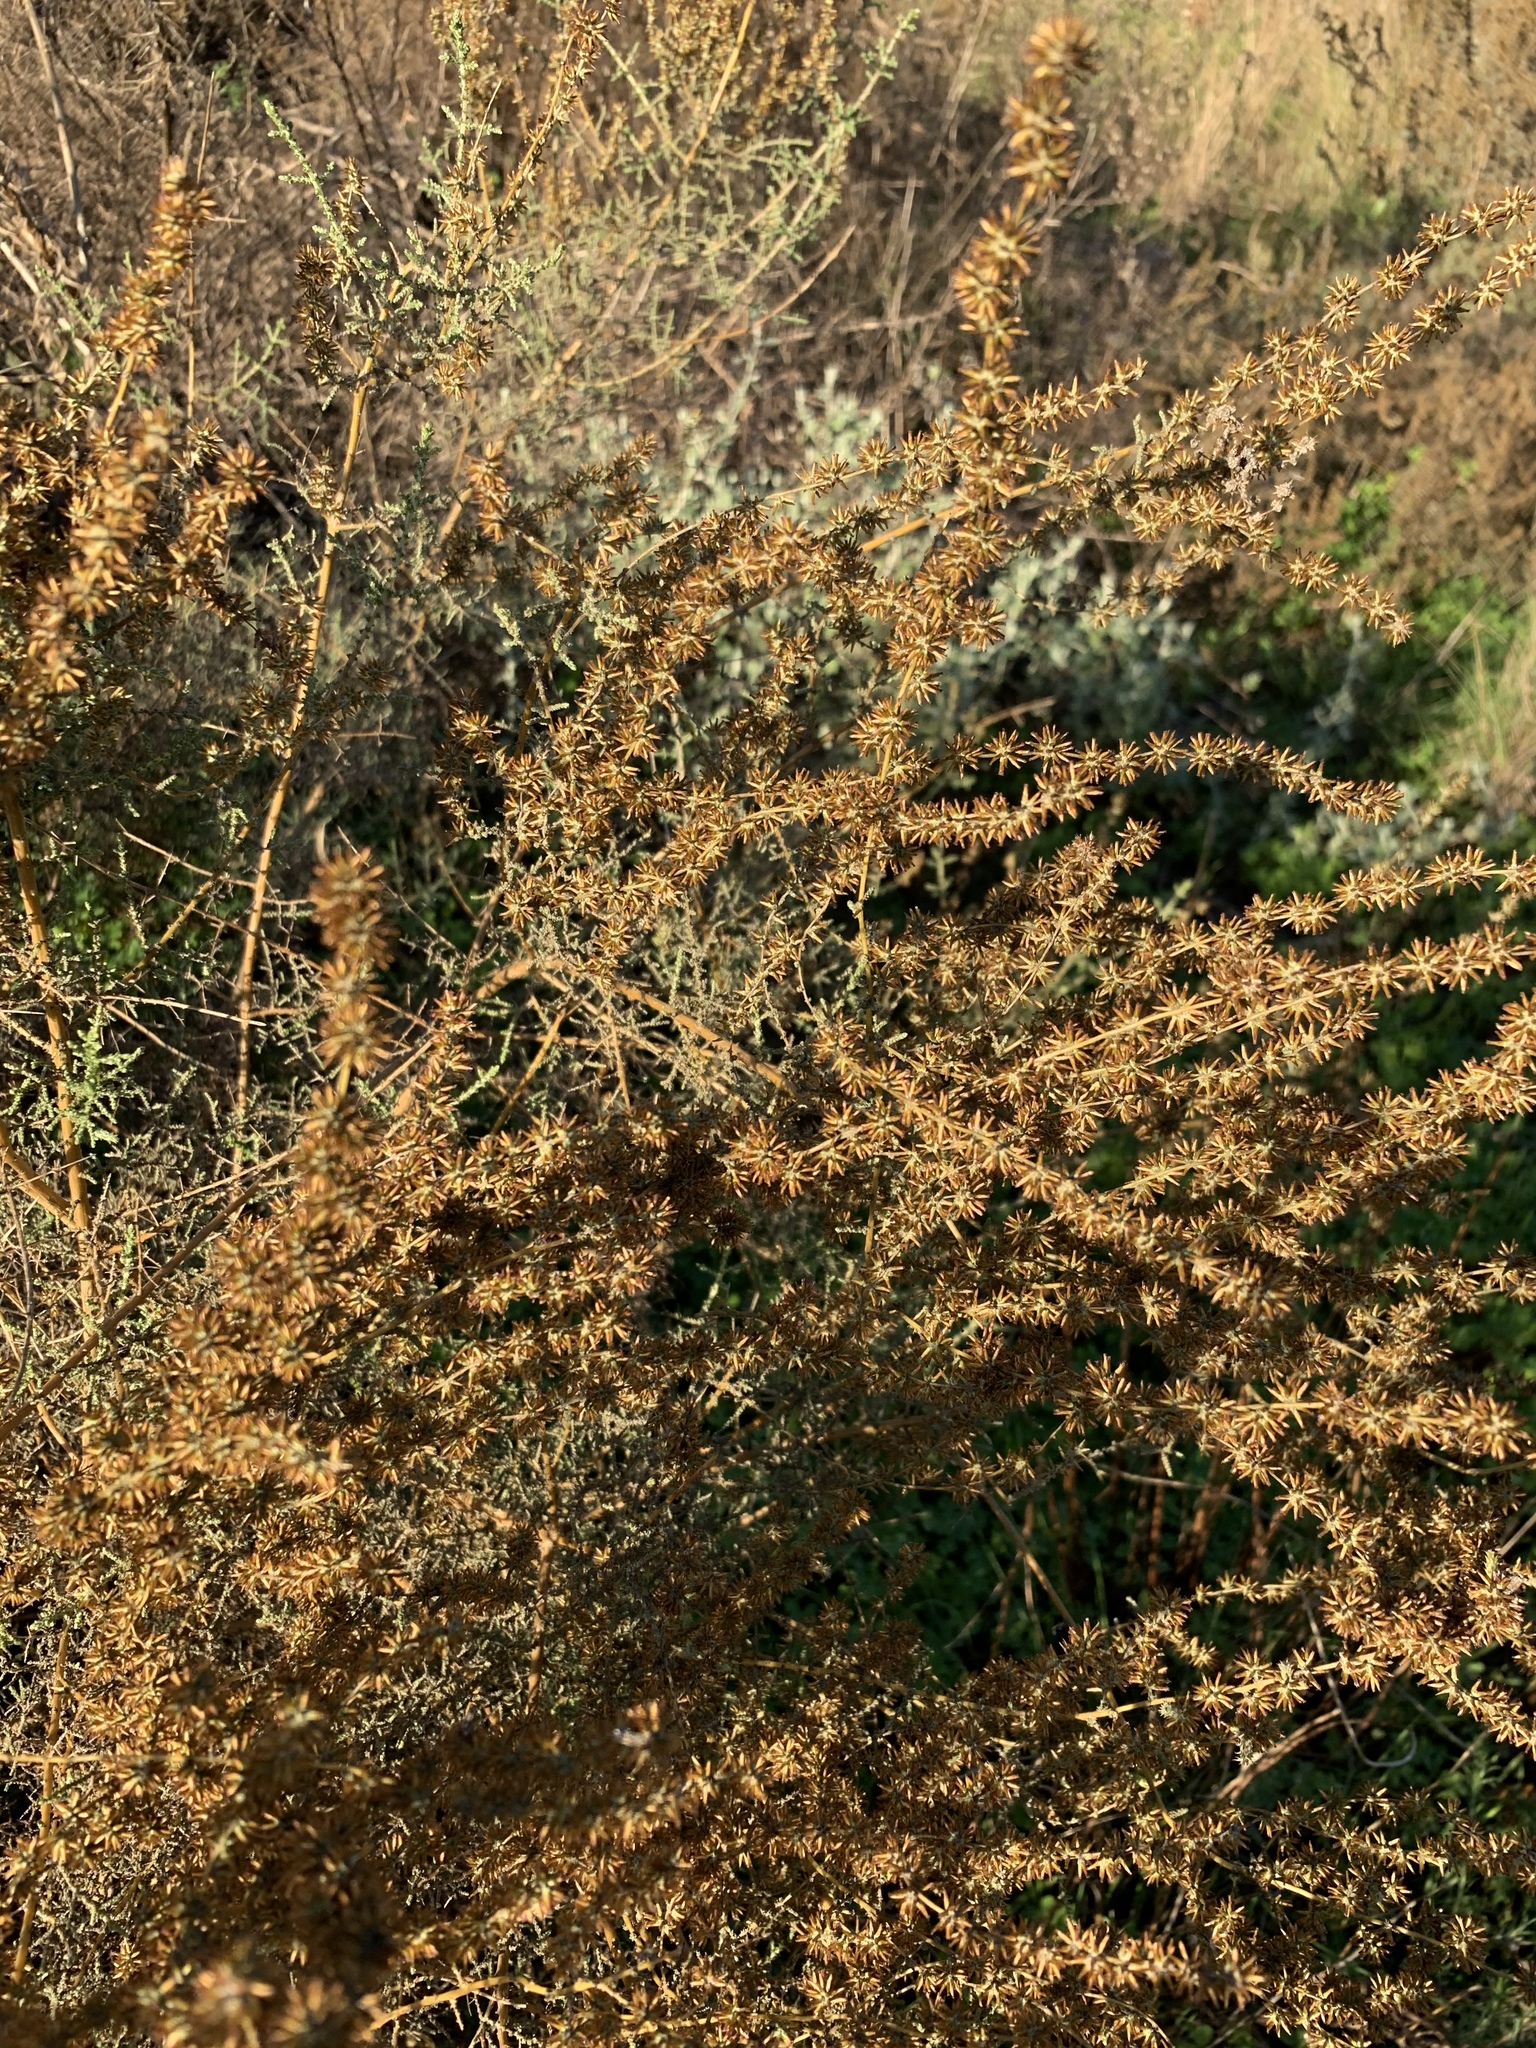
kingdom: Plantae
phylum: Tracheophyta
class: Magnoliopsida
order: Asterales
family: Asteraceae
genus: Seriphium
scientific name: Seriphium plumosum
